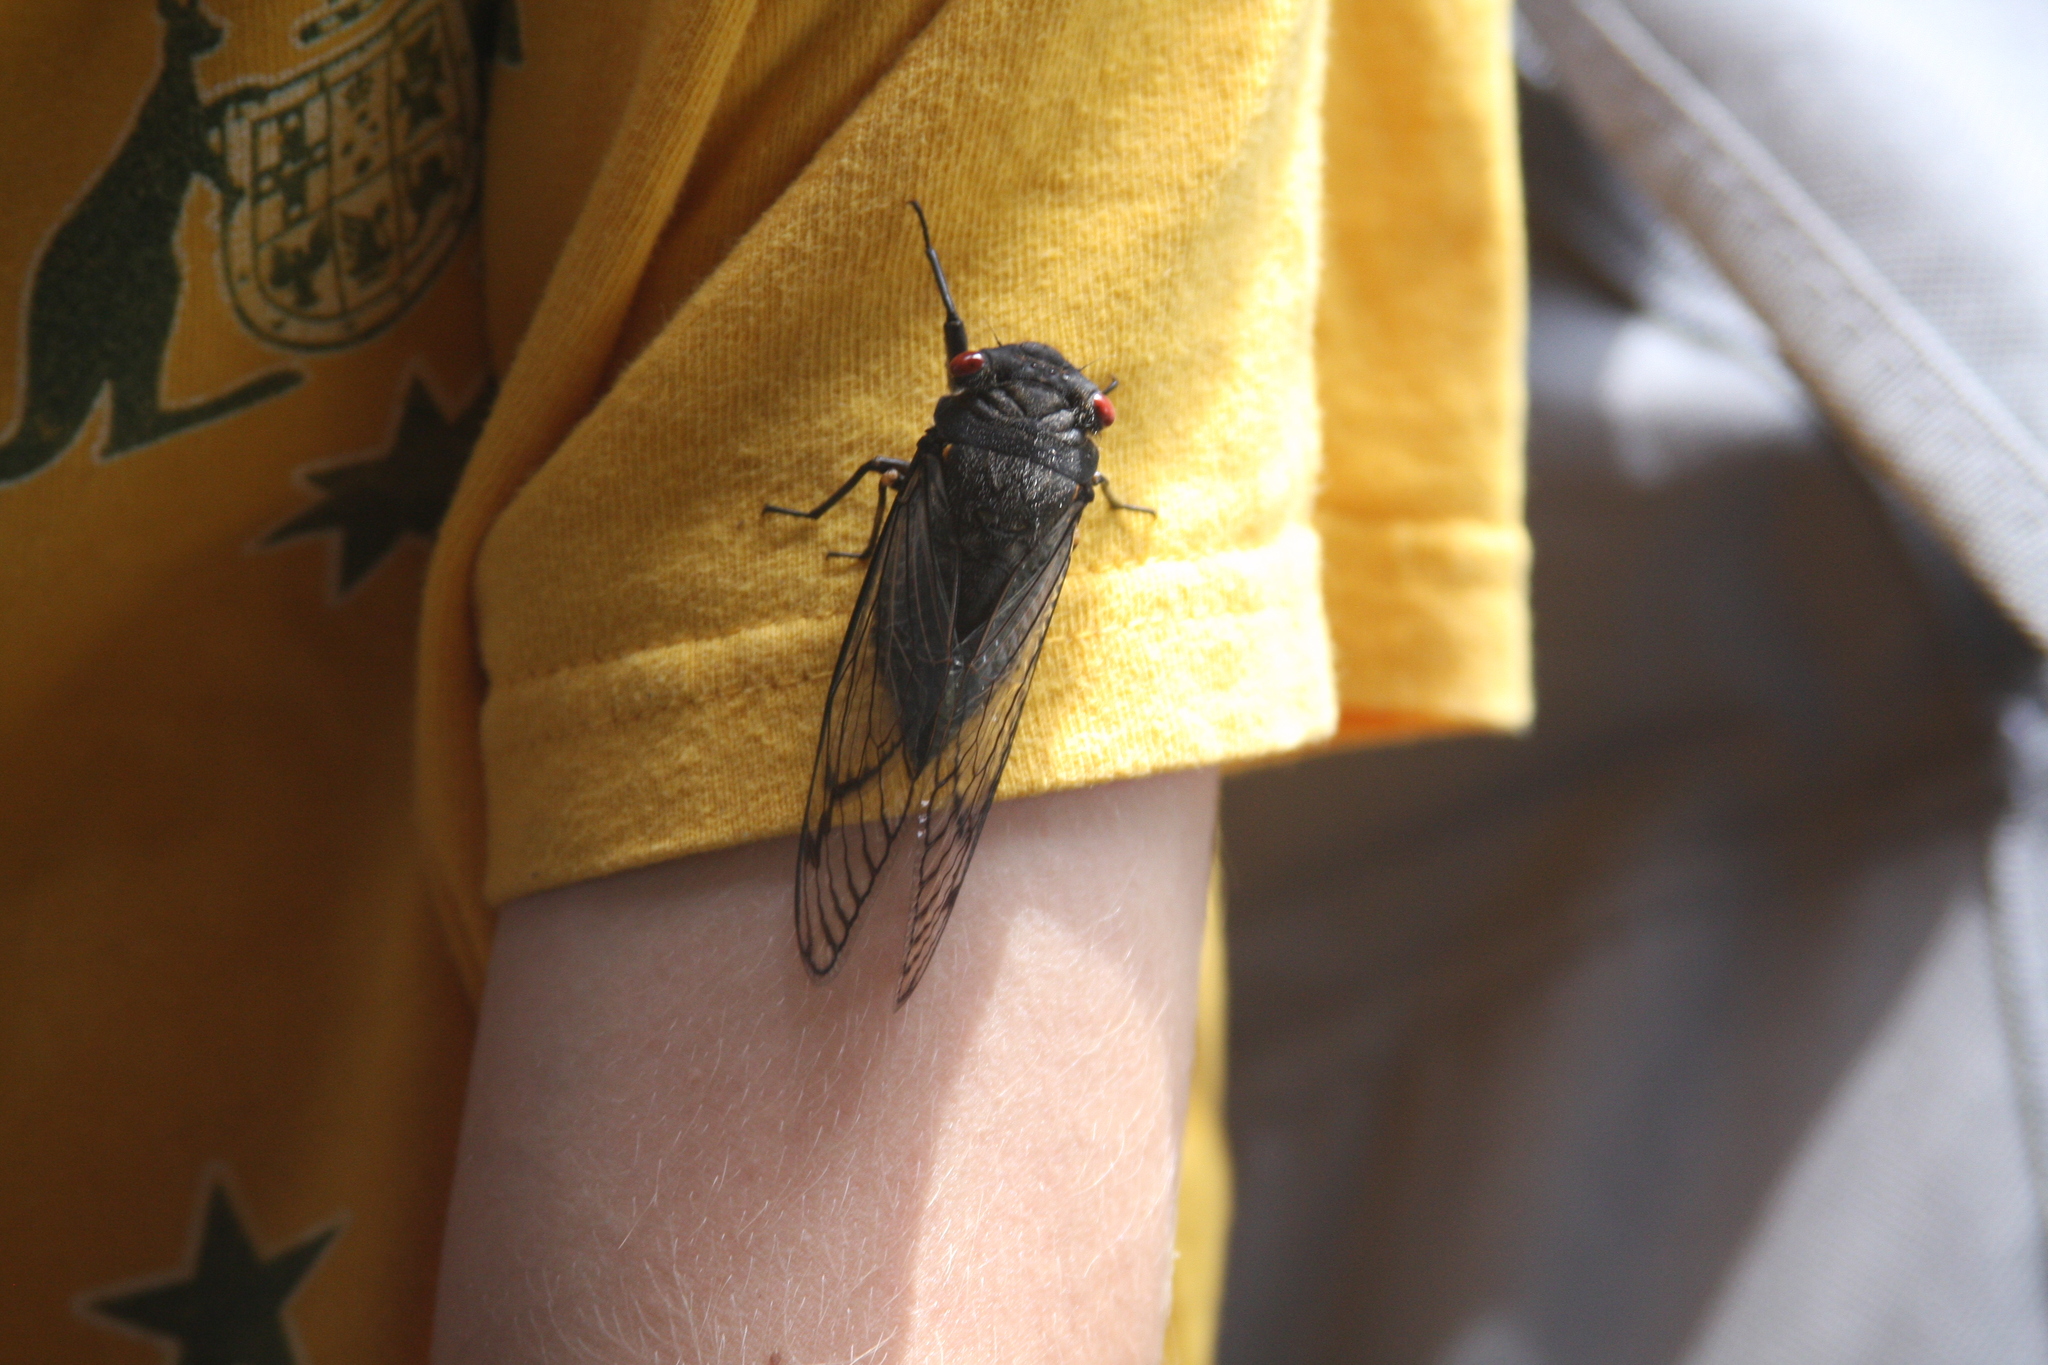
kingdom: Animalia
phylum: Arthropoda
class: Insecta
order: Hemiptera
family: Cicadidae
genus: Psaltoda
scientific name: Psaltoda moerens
